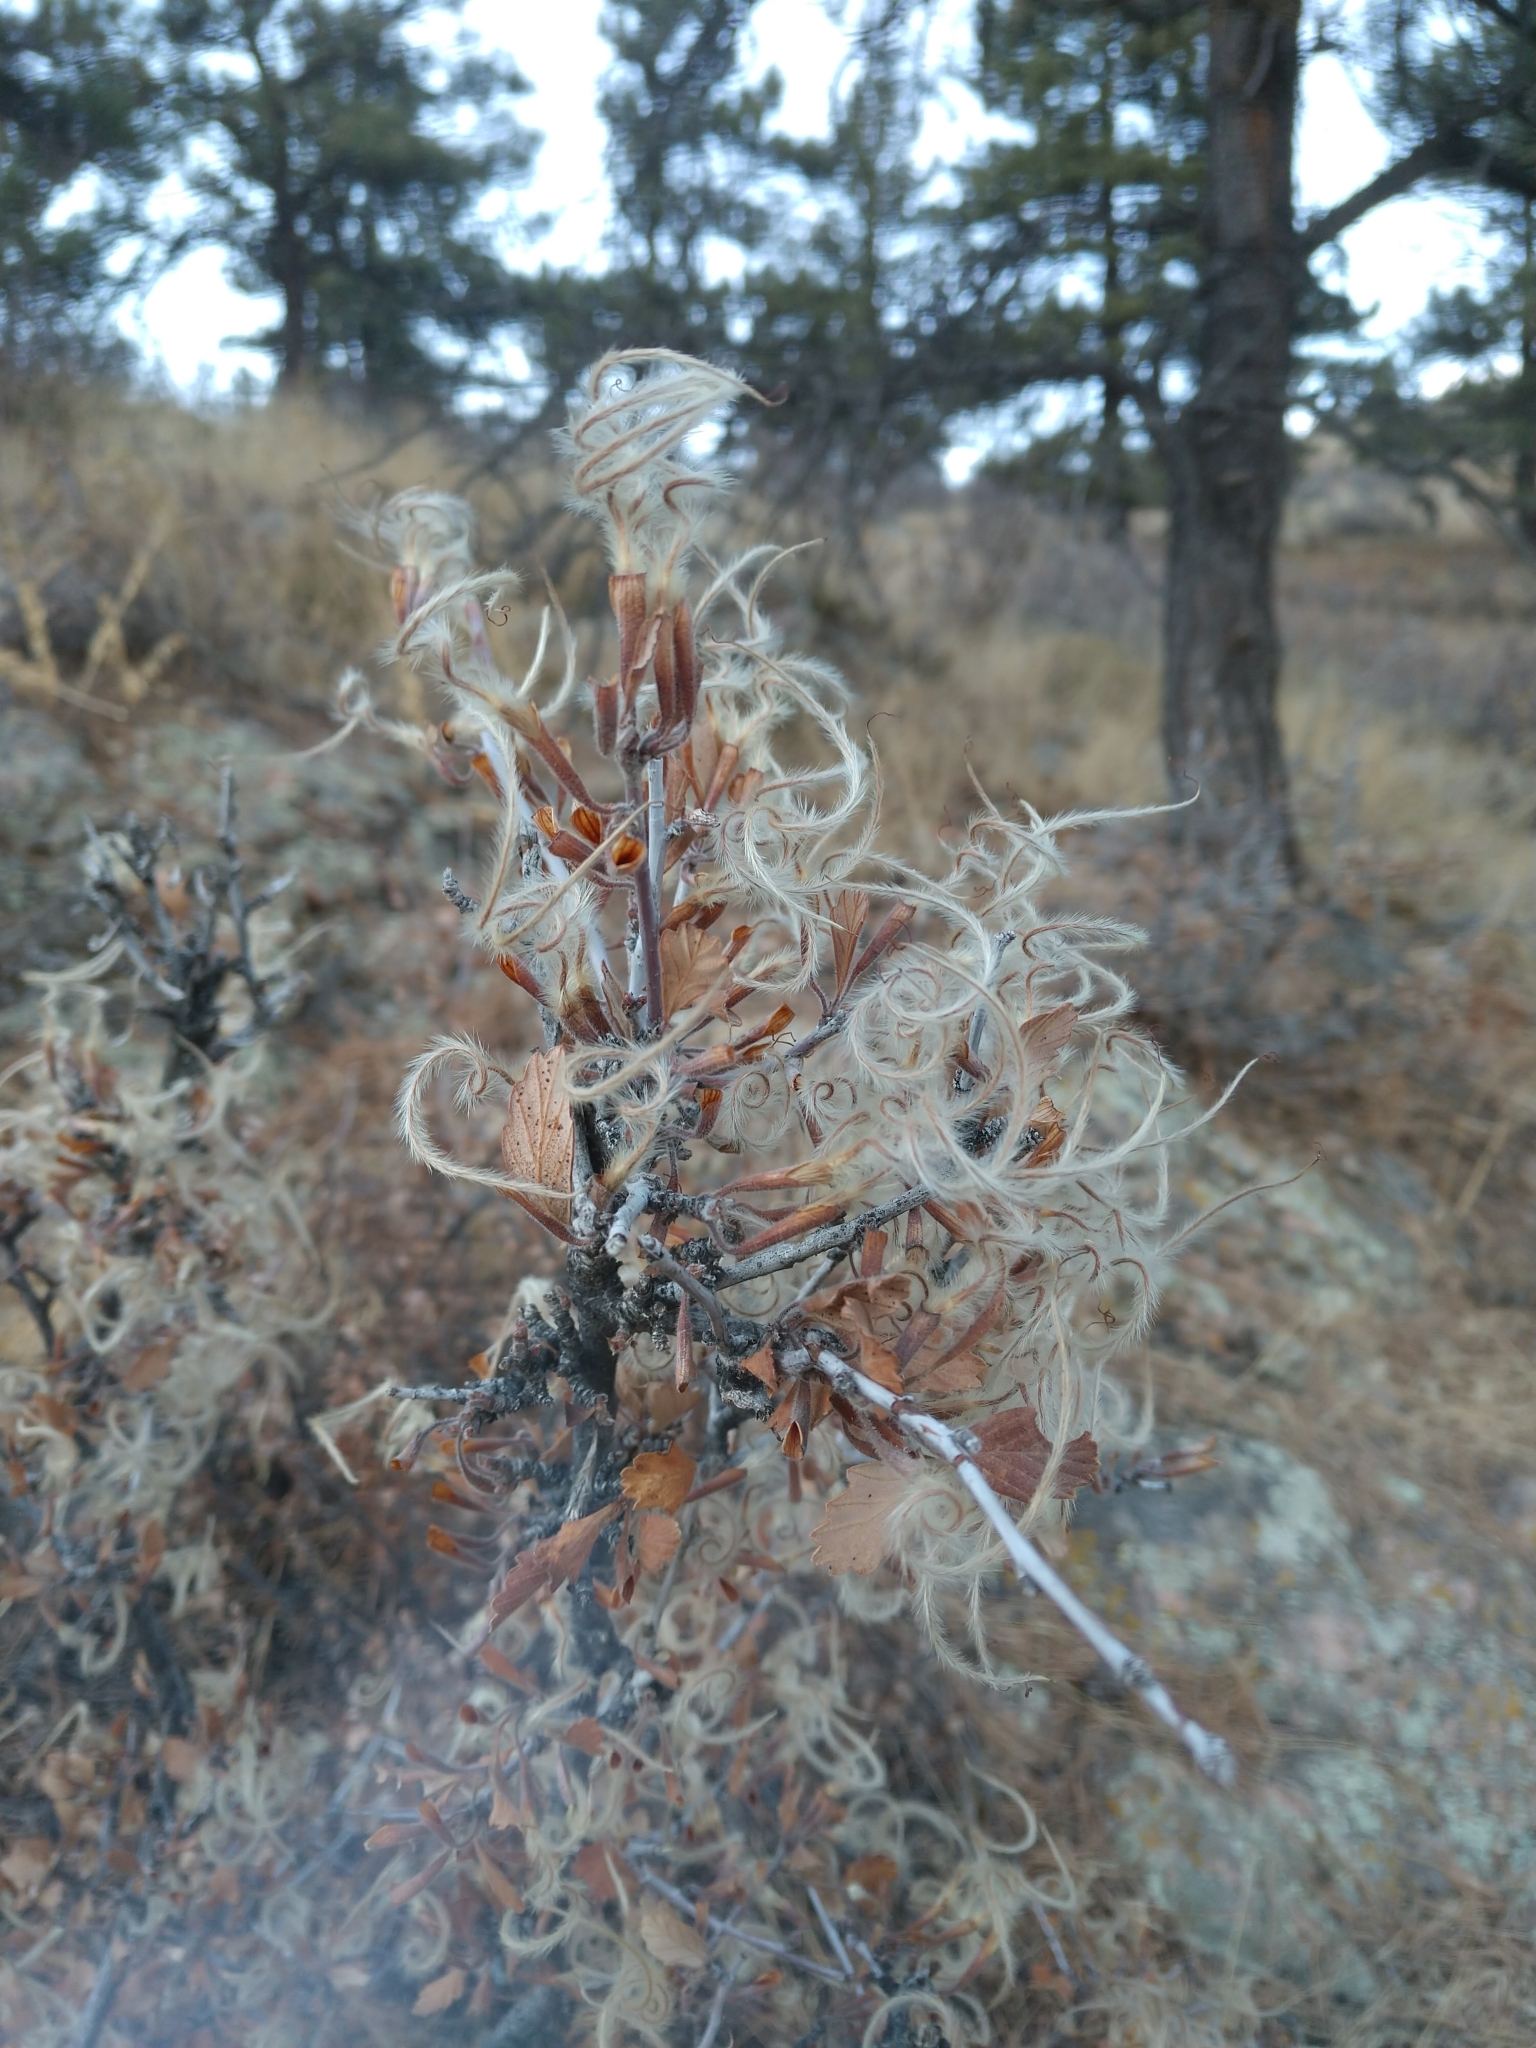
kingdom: Plantae
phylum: Tracheophyta
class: Magnoliopsida
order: Rosales
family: Rosaceae
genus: Cercocarpus
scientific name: Cercocarpus montanus
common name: Alder-leaf cercocarpus
